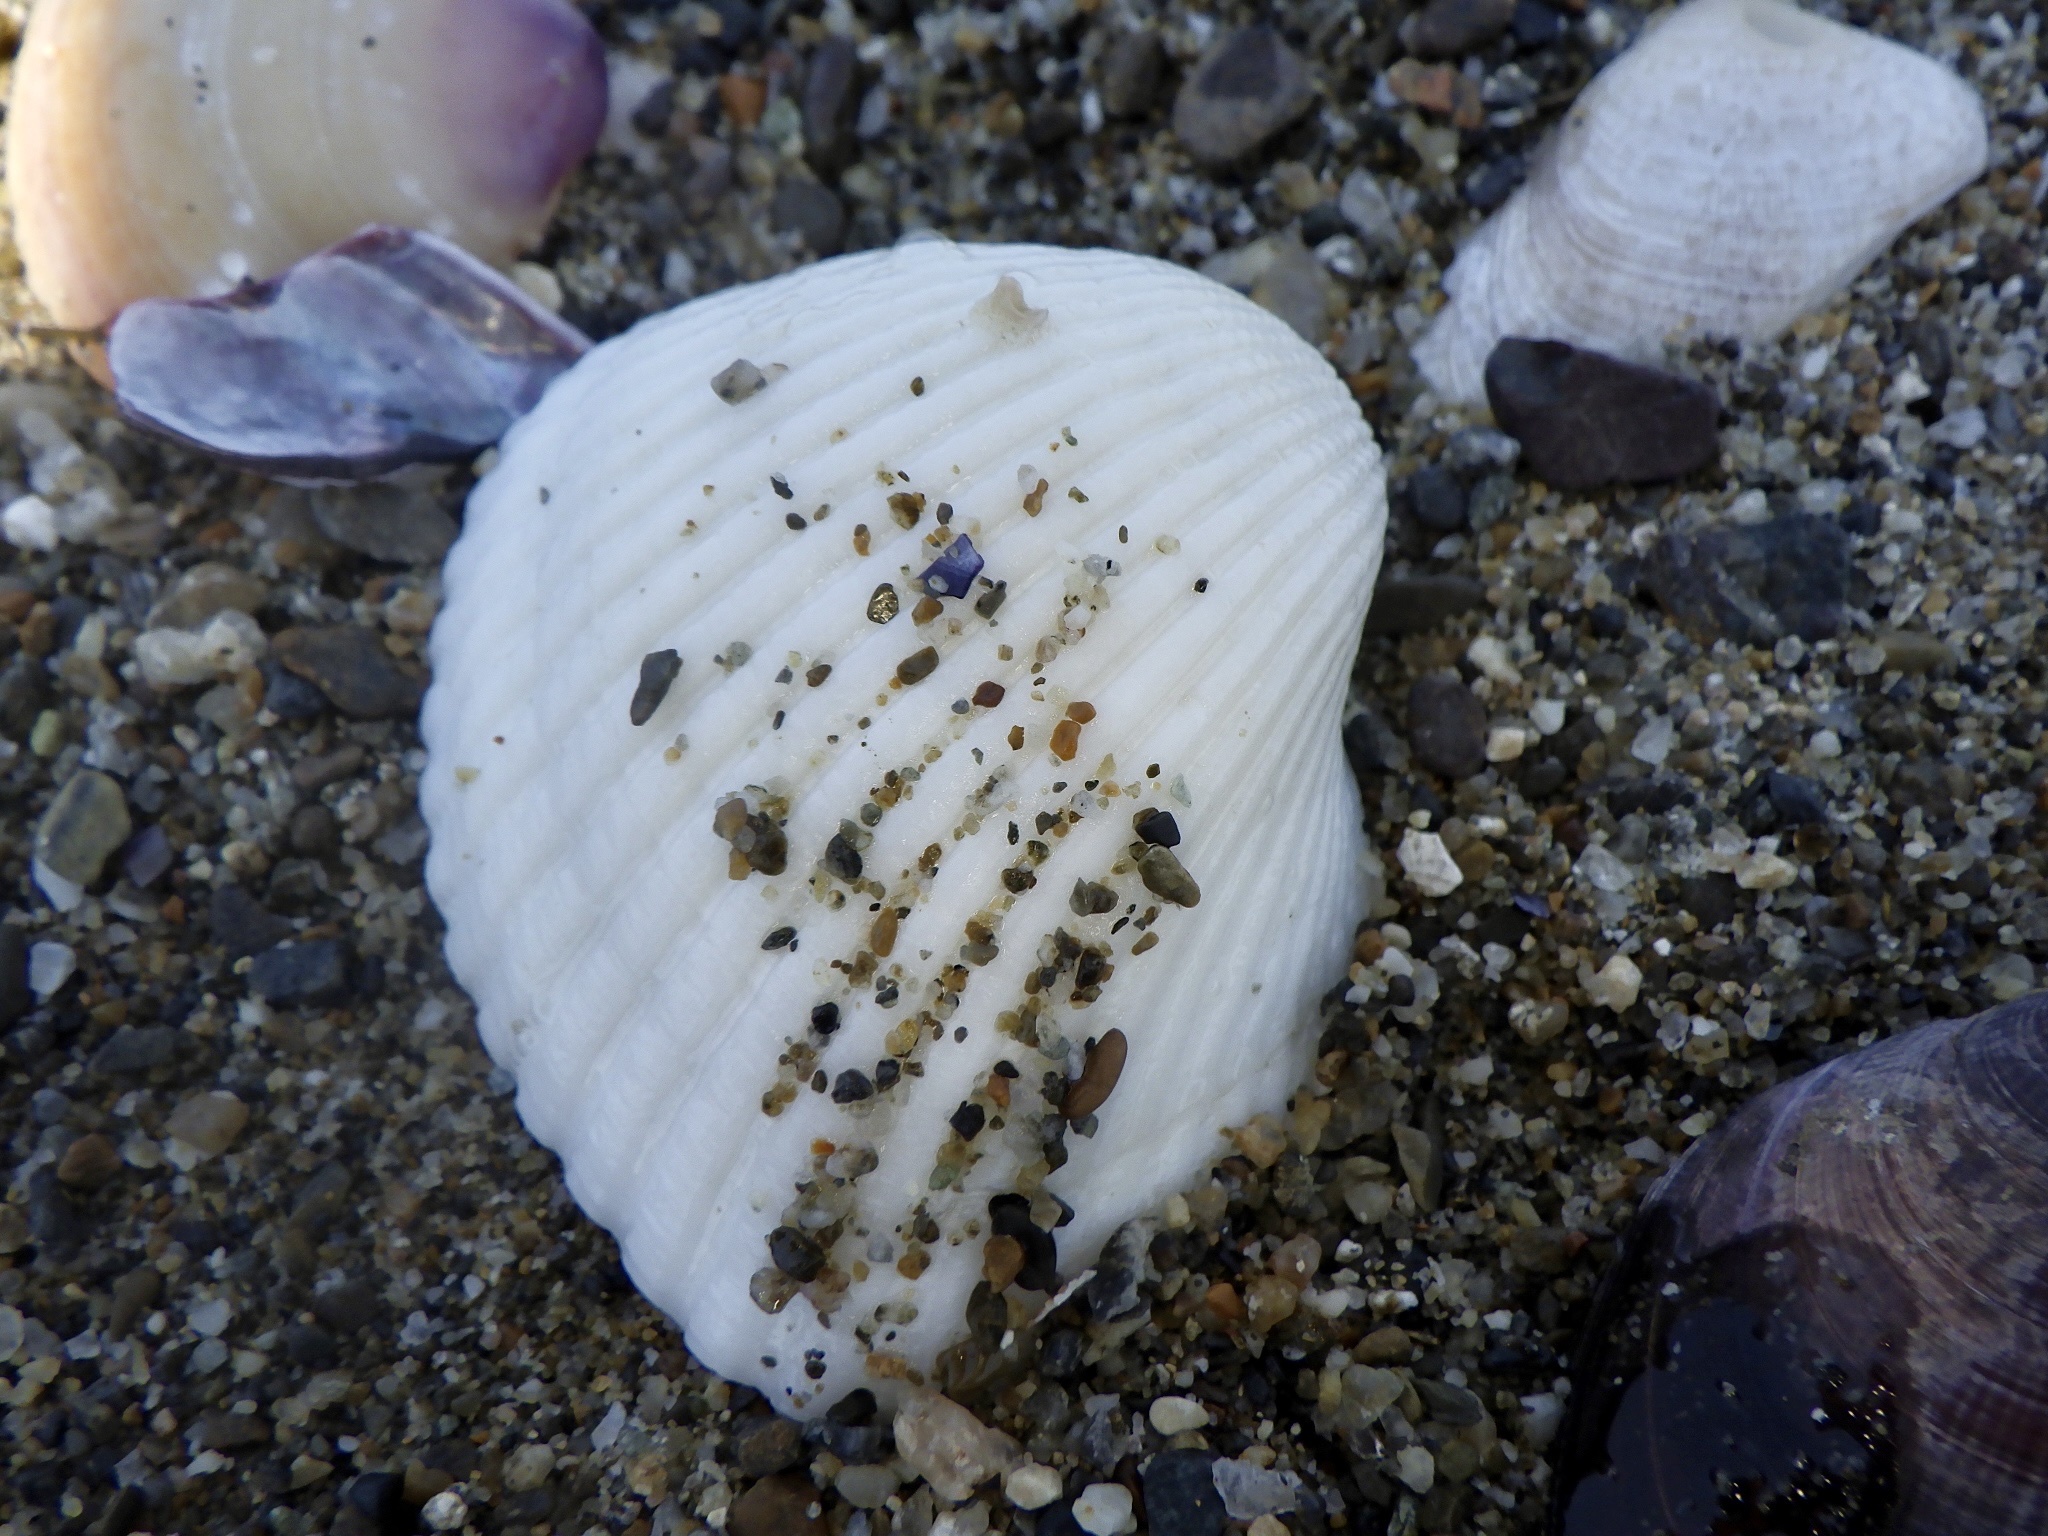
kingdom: Animalia
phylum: Mollusca
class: Bivalvia
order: Arcida
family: Arcidae
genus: Anadara
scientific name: Anadara kagoshimensis
